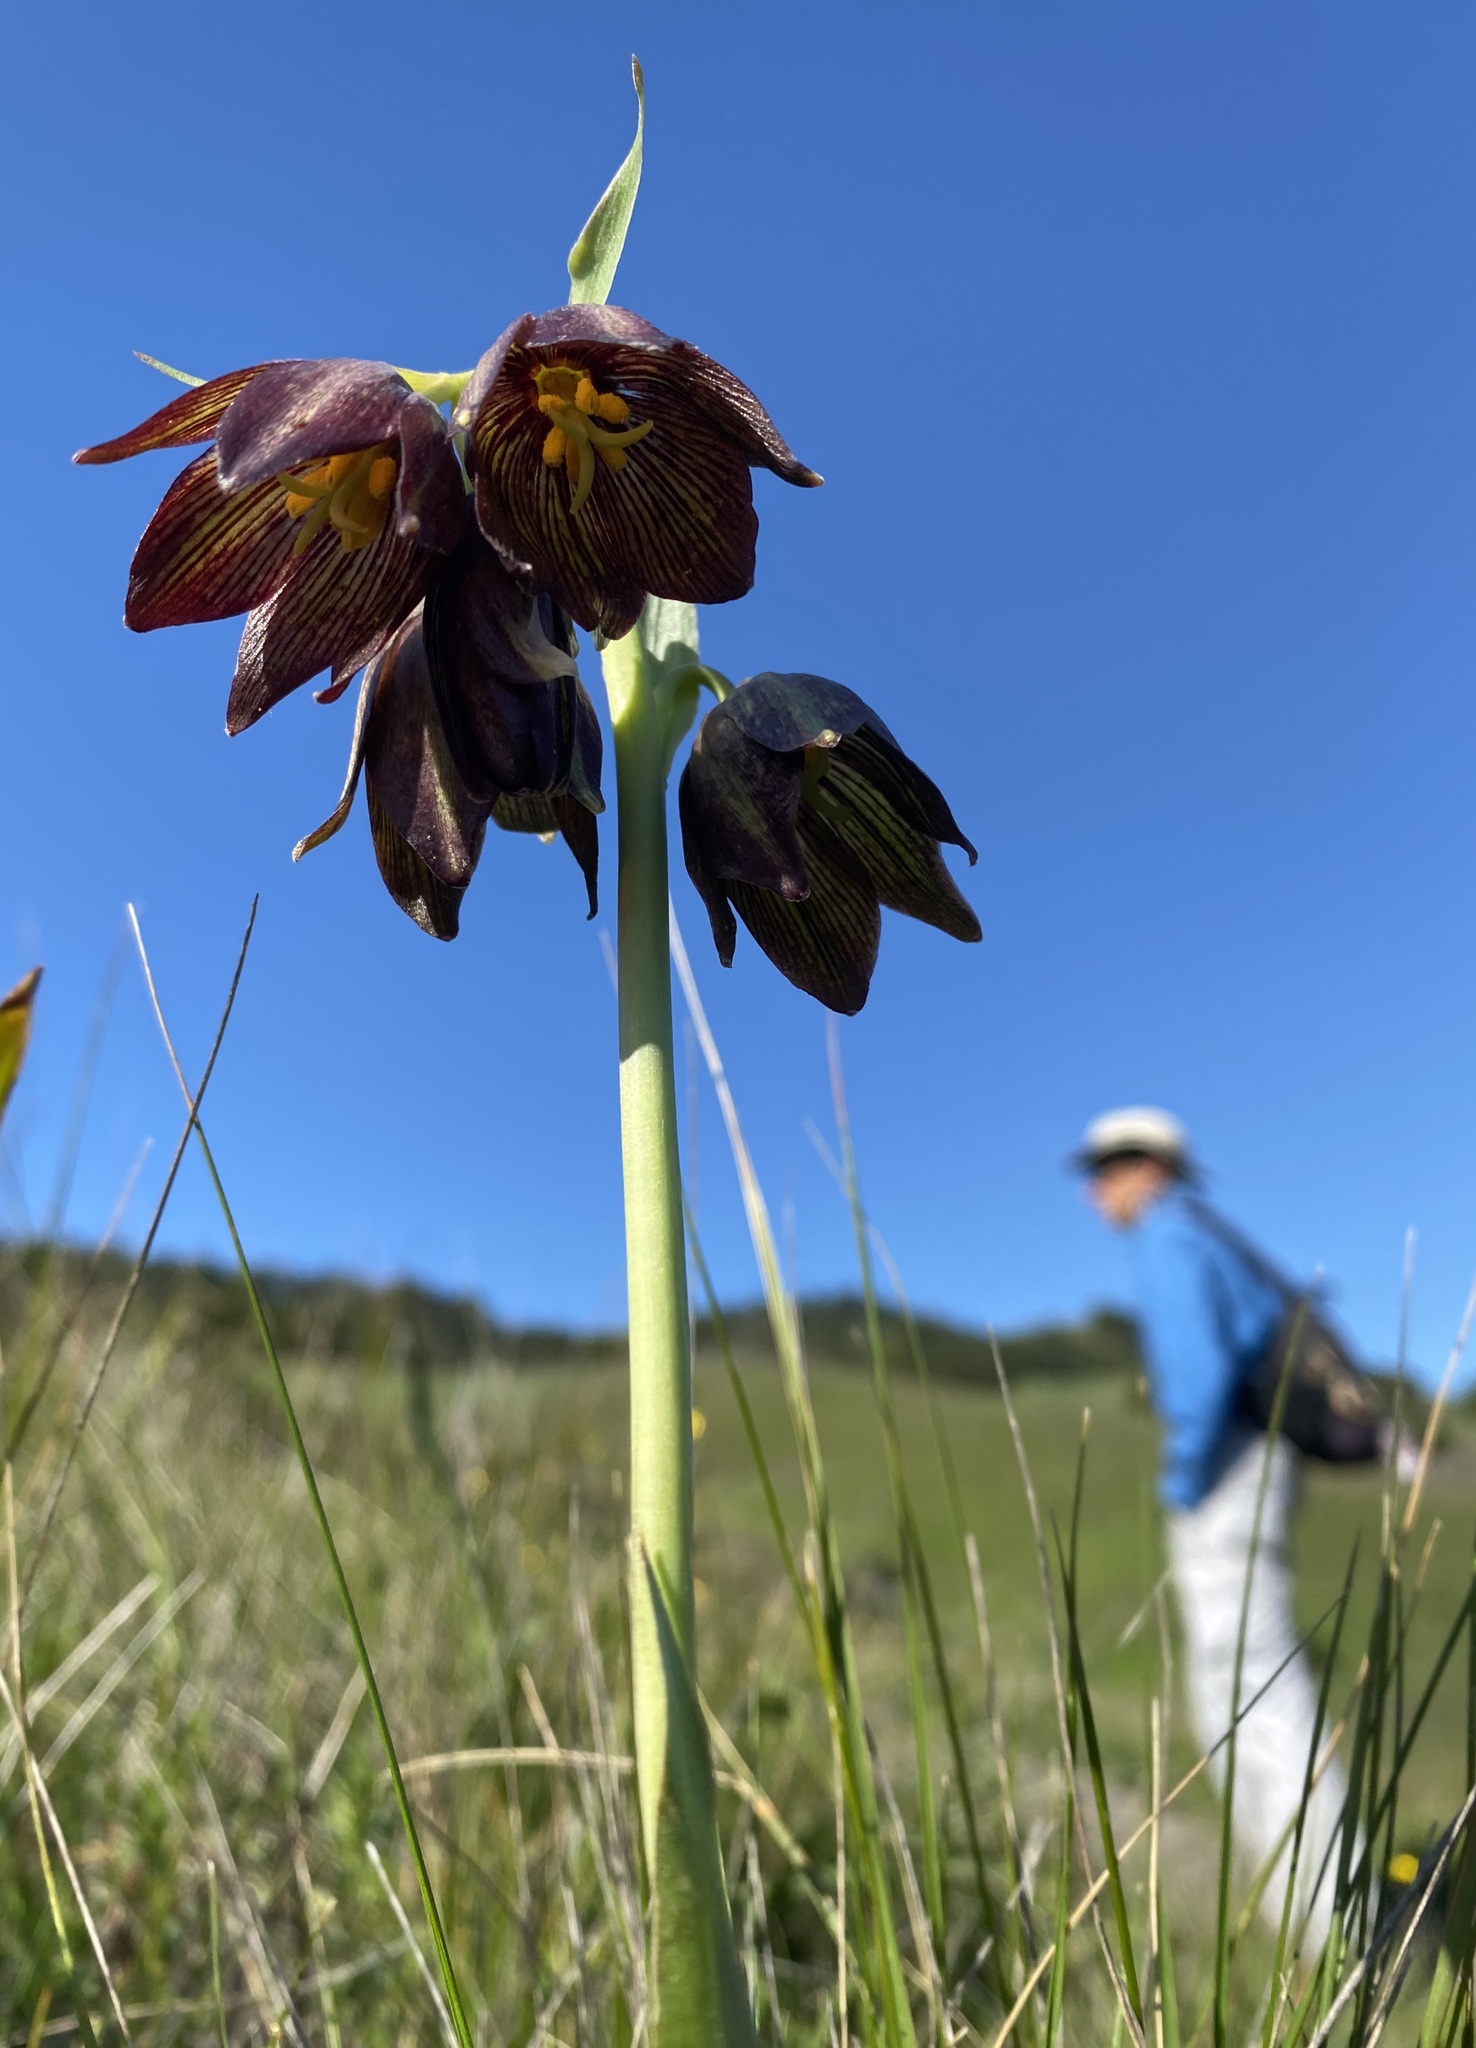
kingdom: Plantae
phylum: Tracheophyta
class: Liliopsida
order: Liliales
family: Liliaceae
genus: Fritillaria
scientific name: Fritillaria biflora
